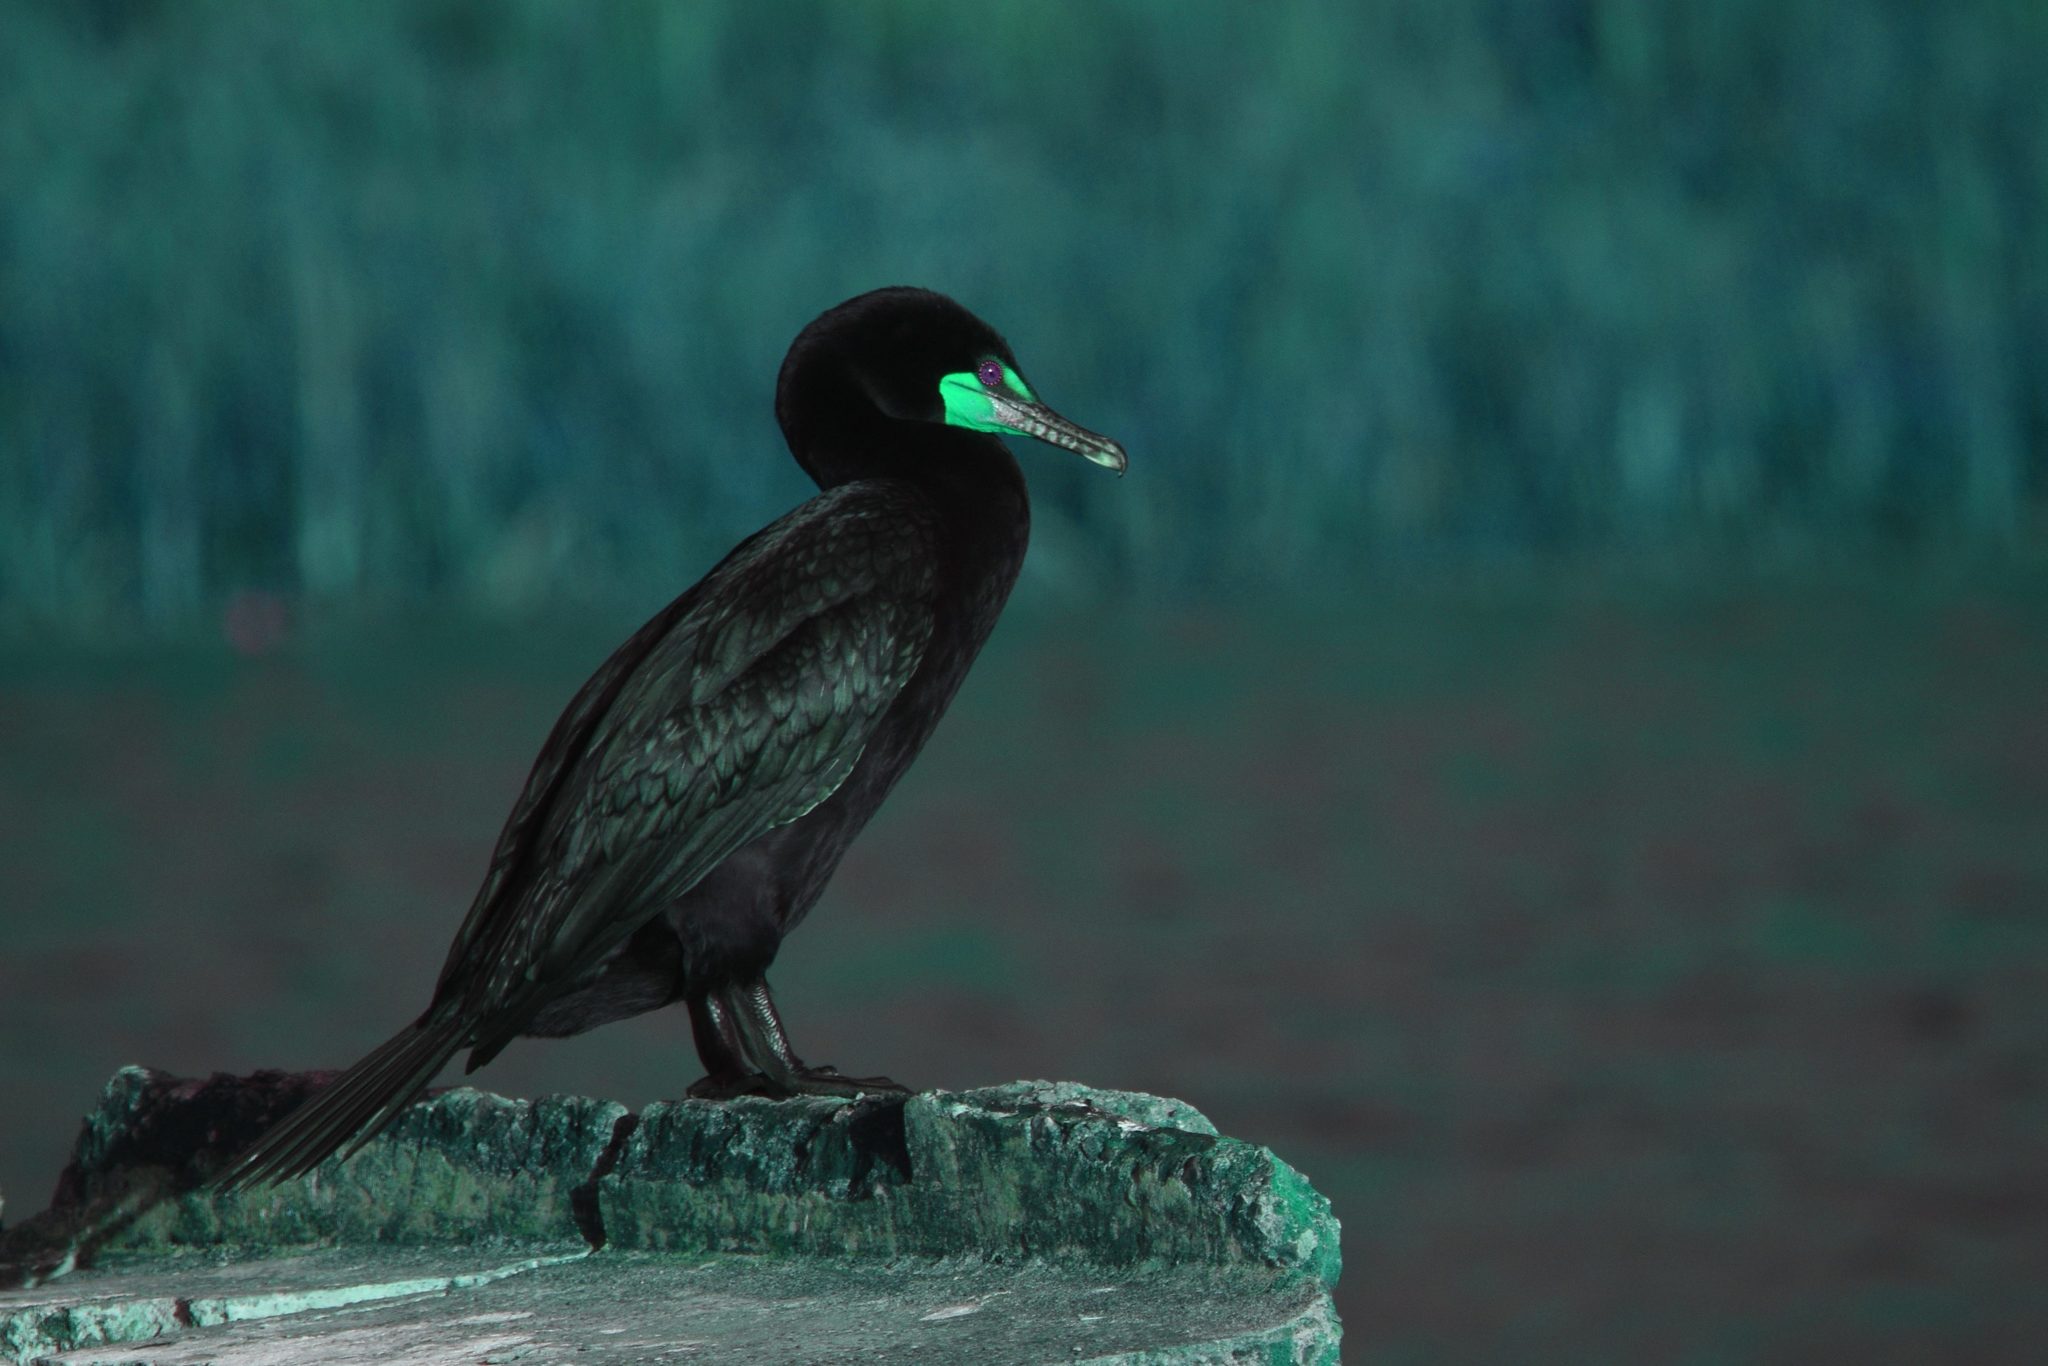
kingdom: Animalia
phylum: Chordata
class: Aves
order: Suliformes
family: Phalacrocoracidae
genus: Phalacrocorax
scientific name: Phalacrocorax auritus
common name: Double-crested cormorant
